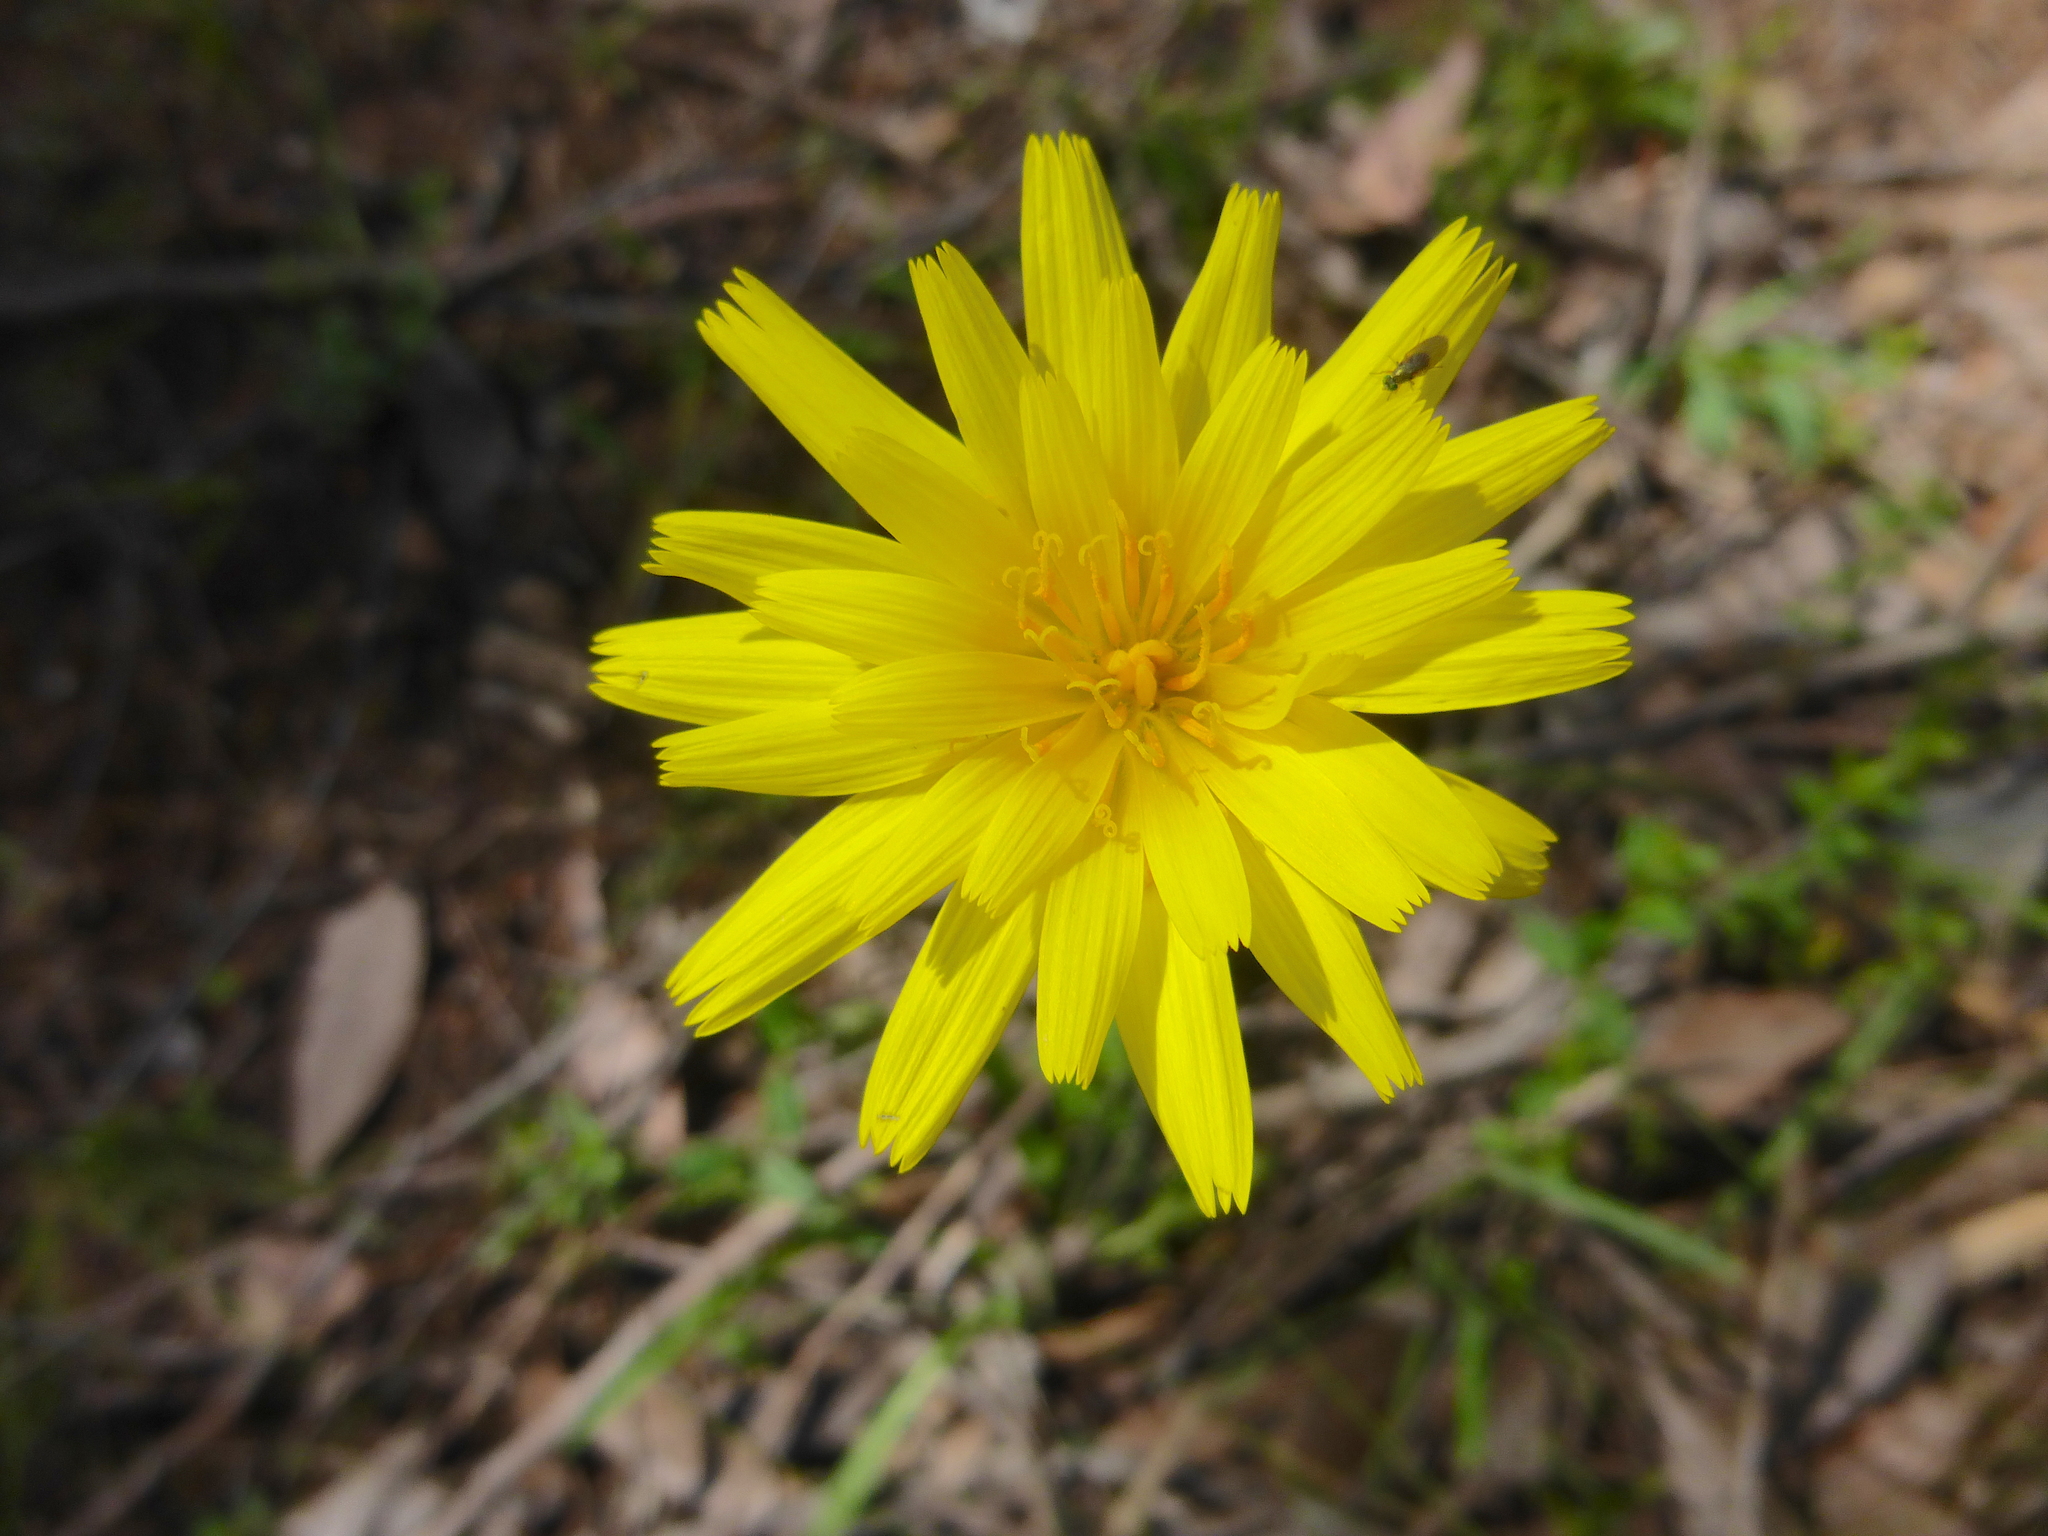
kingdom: Plantae
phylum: Tracheophyta
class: Magnoliopsida
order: Asterales
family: Asteraceae
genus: Microseris
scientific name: Microseris lanceolata
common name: Yam daisy
